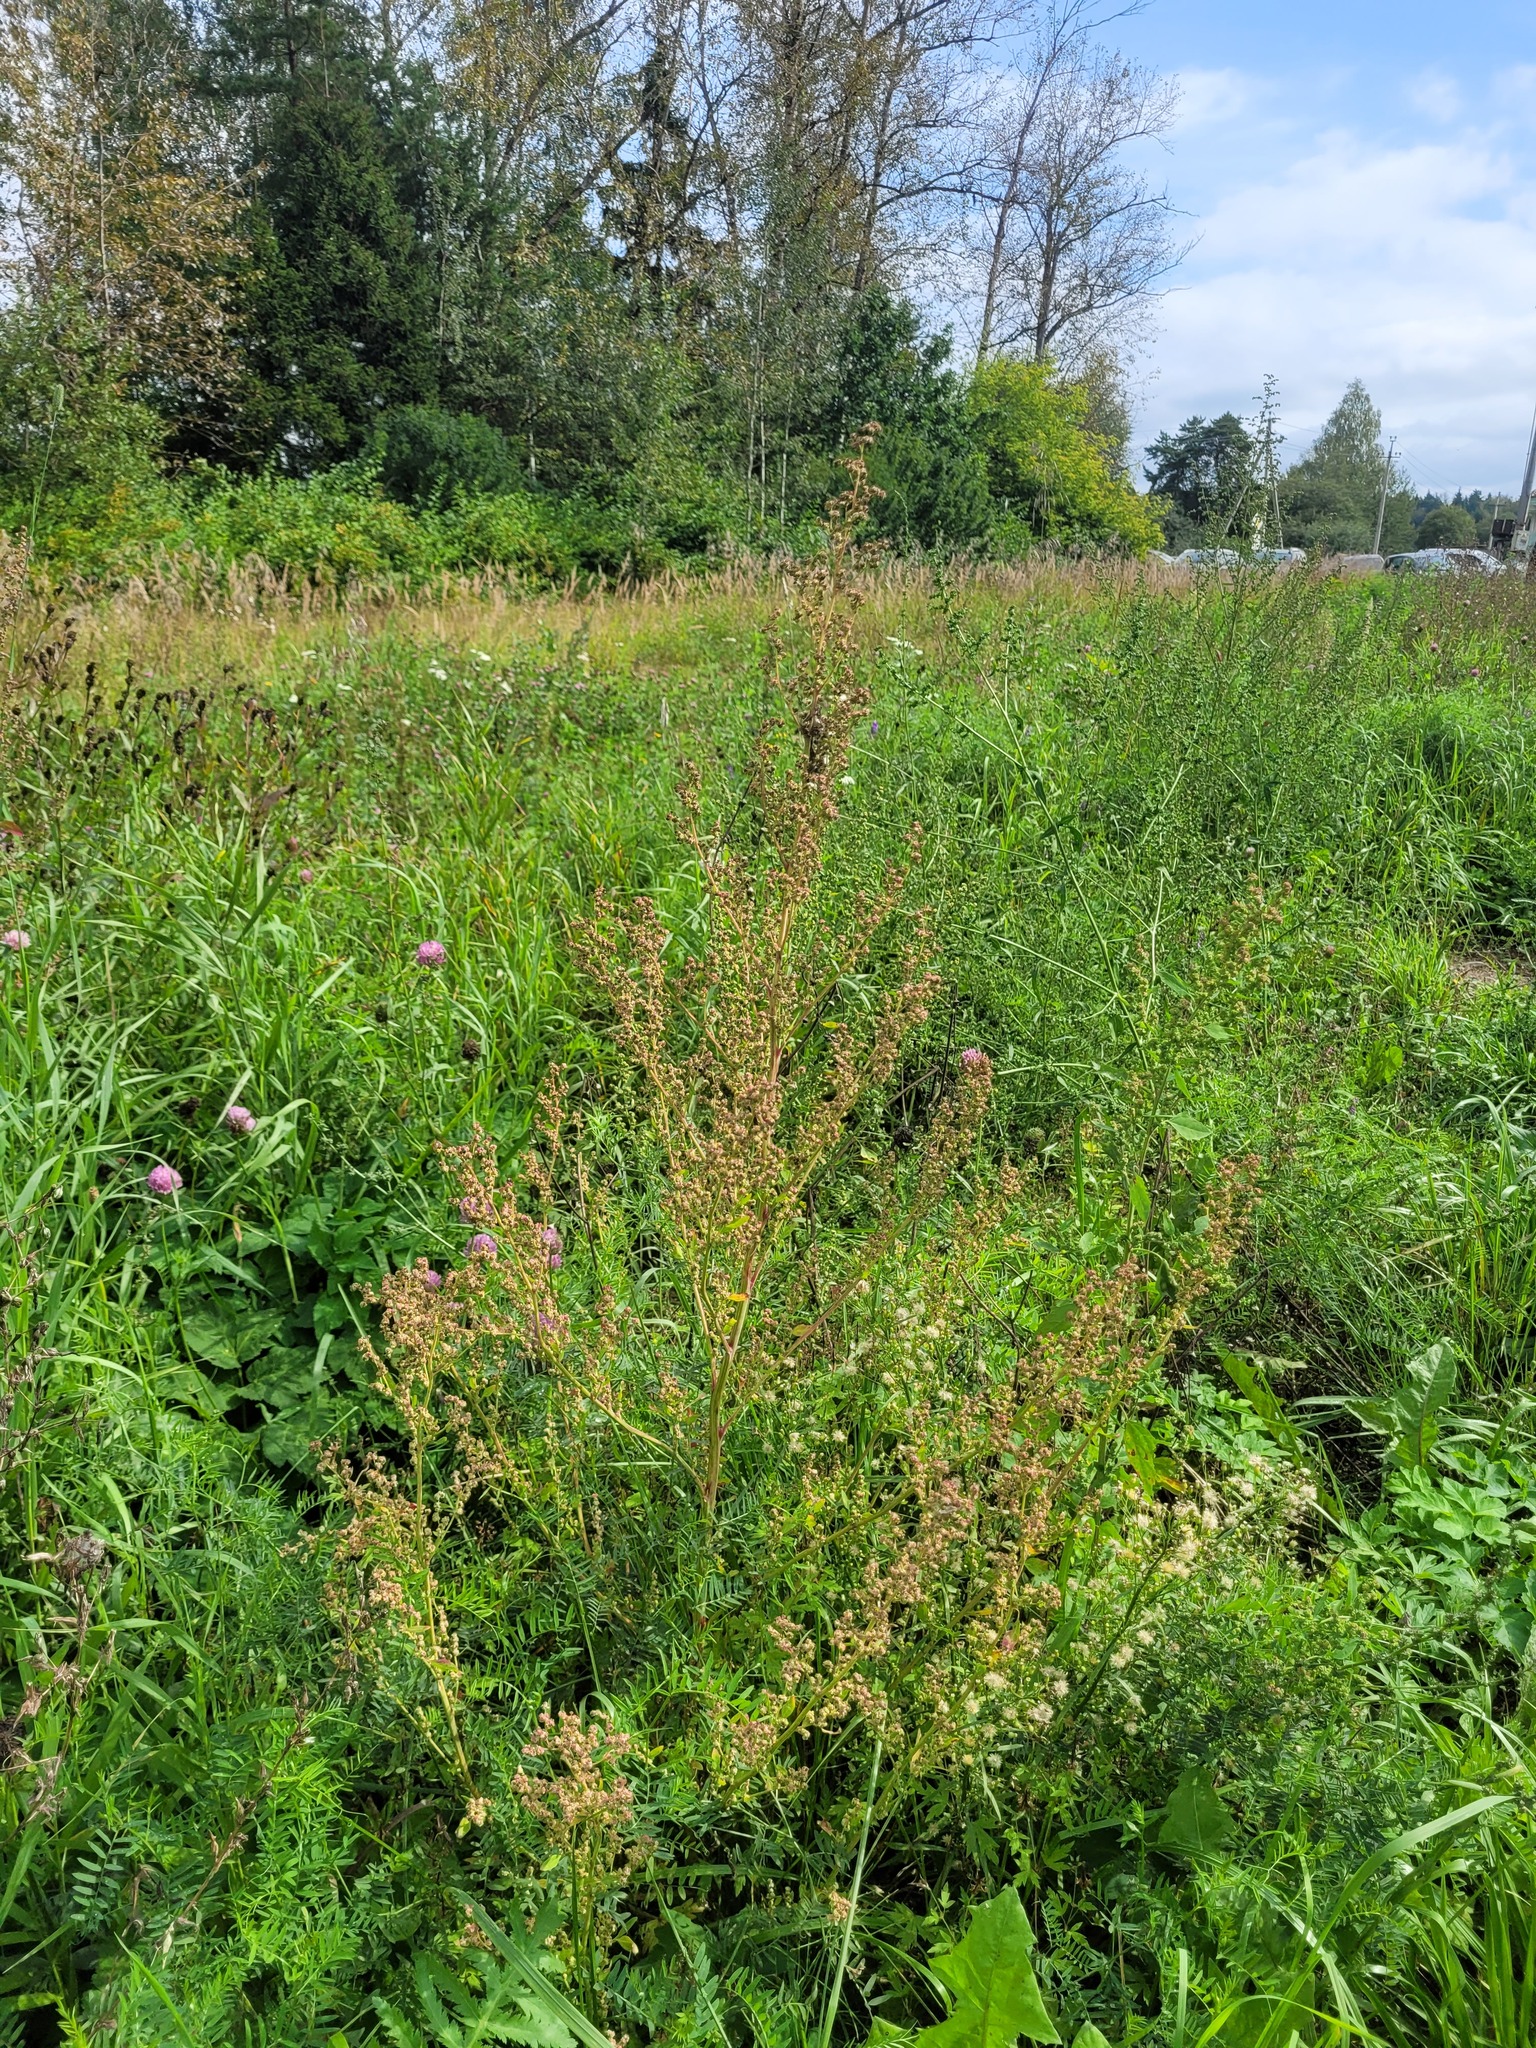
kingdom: Plantae
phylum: Tracheophyta
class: Magnoliopsida
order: Caryophyllales
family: Amaranthaceae
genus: Chenopodium
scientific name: Chenopodium album
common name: Fat-hen
